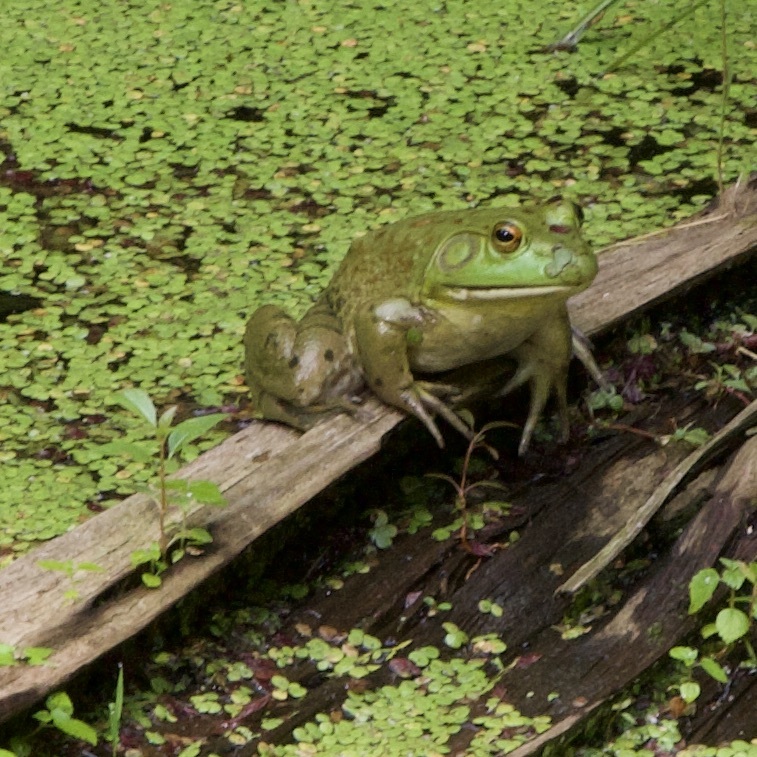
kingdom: Animalia
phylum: Chordata
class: Amphibia
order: Anura
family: Ranidae
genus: Lithobates
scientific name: Lithobates catesbeianus
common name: American bullfrog
